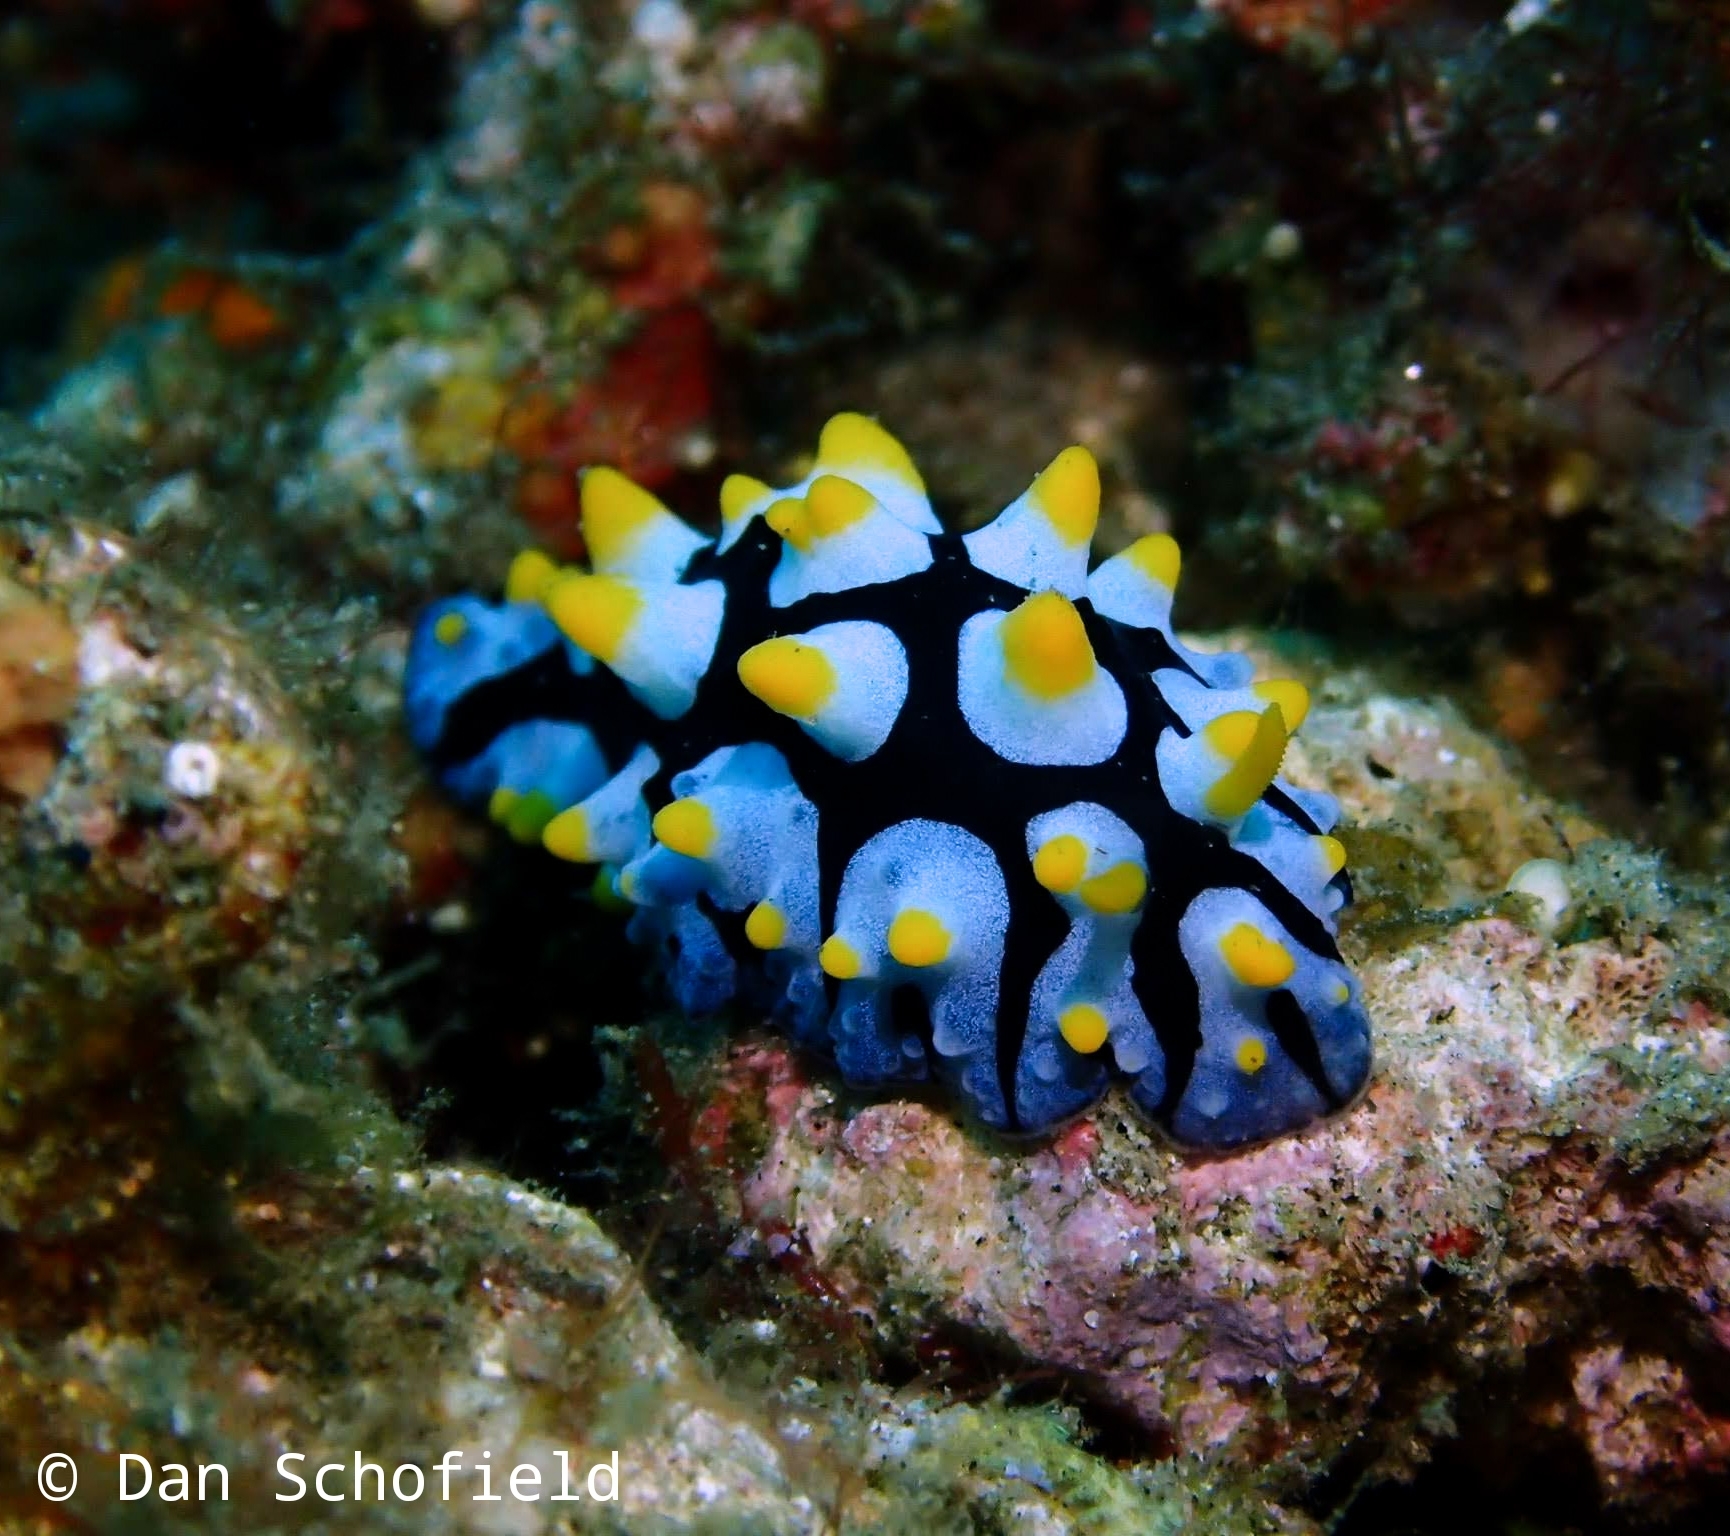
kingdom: Animalia
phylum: Mollusca
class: Gastropoda
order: Nudibranchia
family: Phyllidiidae
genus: Phyllidia
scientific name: Phyllidia picta
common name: Black-rayed phyllidia
